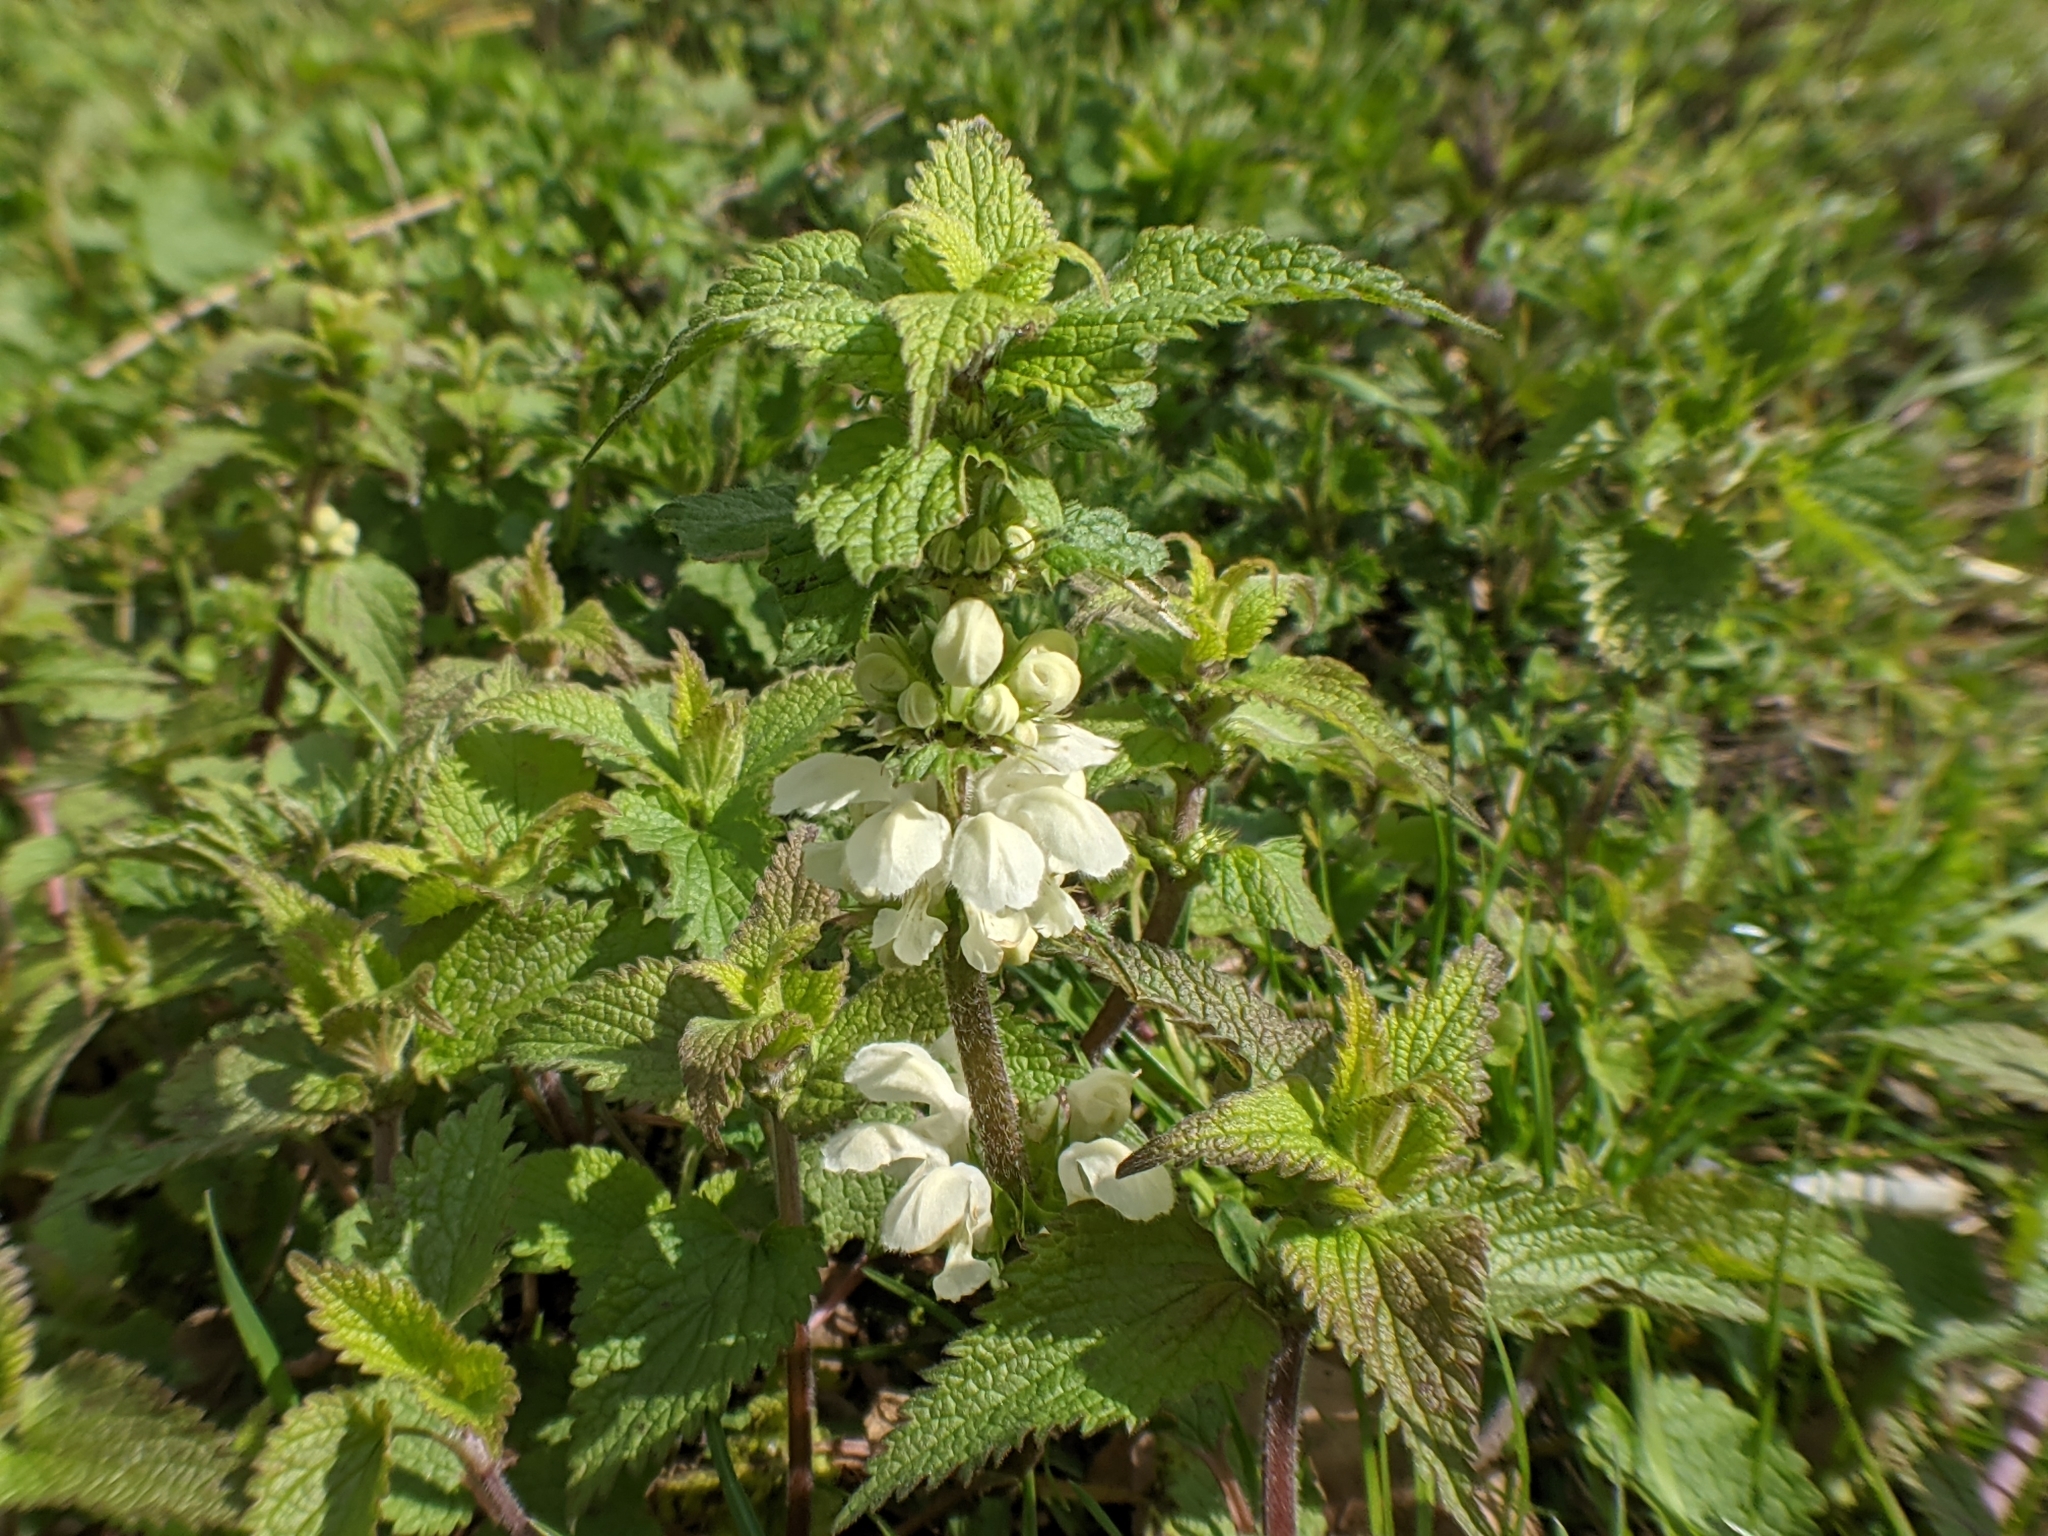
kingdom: Plantae
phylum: Tracheophyta
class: Magnoliopsida
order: Lamiales
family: Lamiaceae
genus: Lamium
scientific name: Lamium album
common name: White dead-nettle
